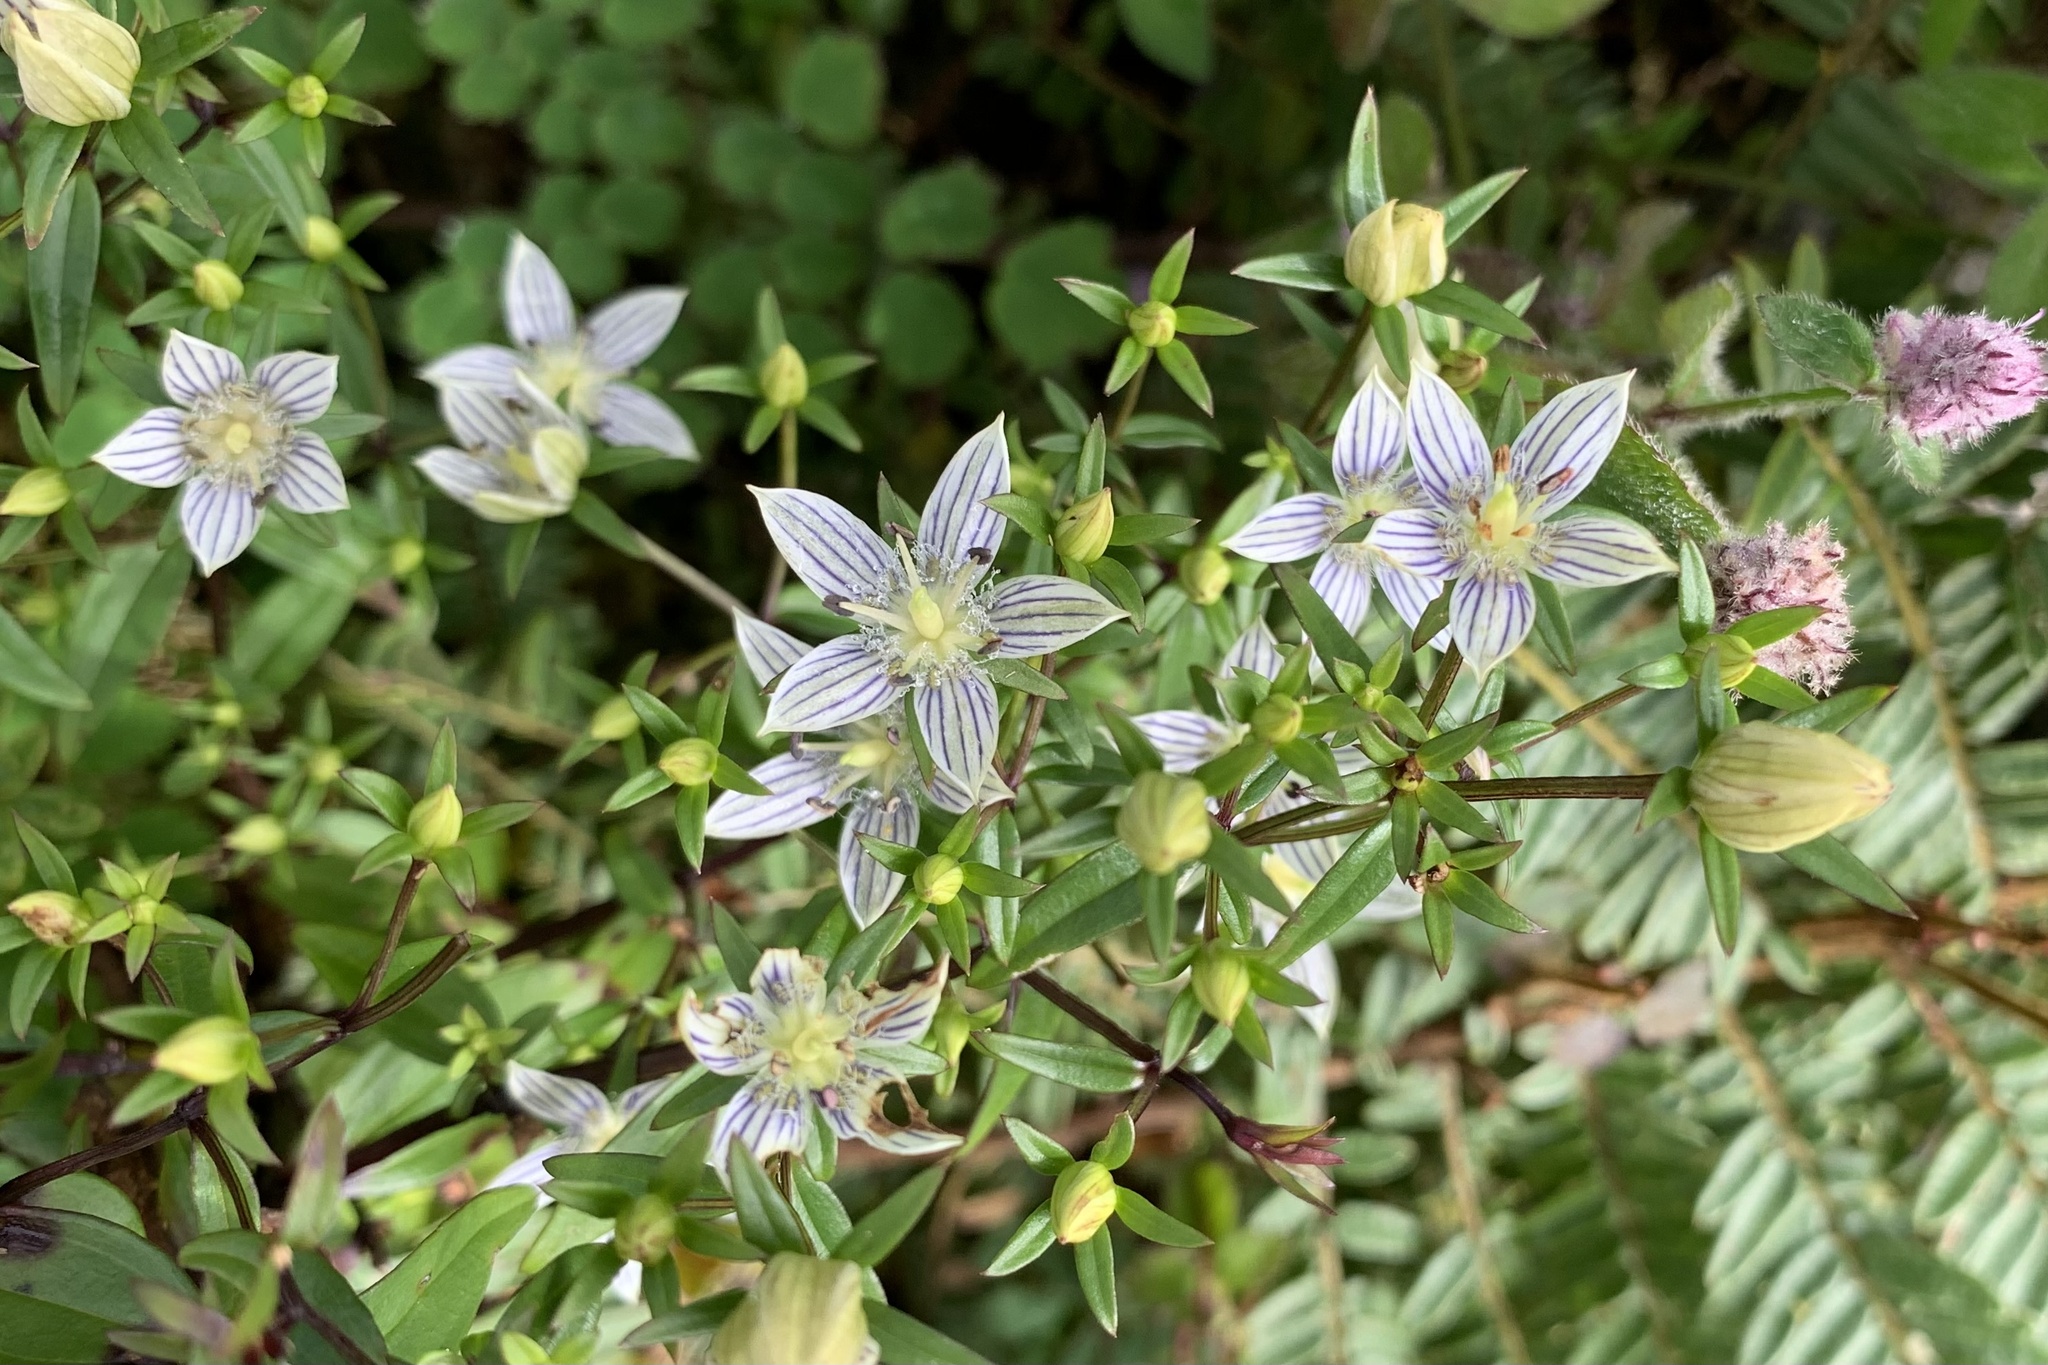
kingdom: Plantae
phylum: Tracheophyta
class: Magnoliopsida
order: Gentianales
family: Gentianaceae
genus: Swertia
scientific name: Swertia striata
